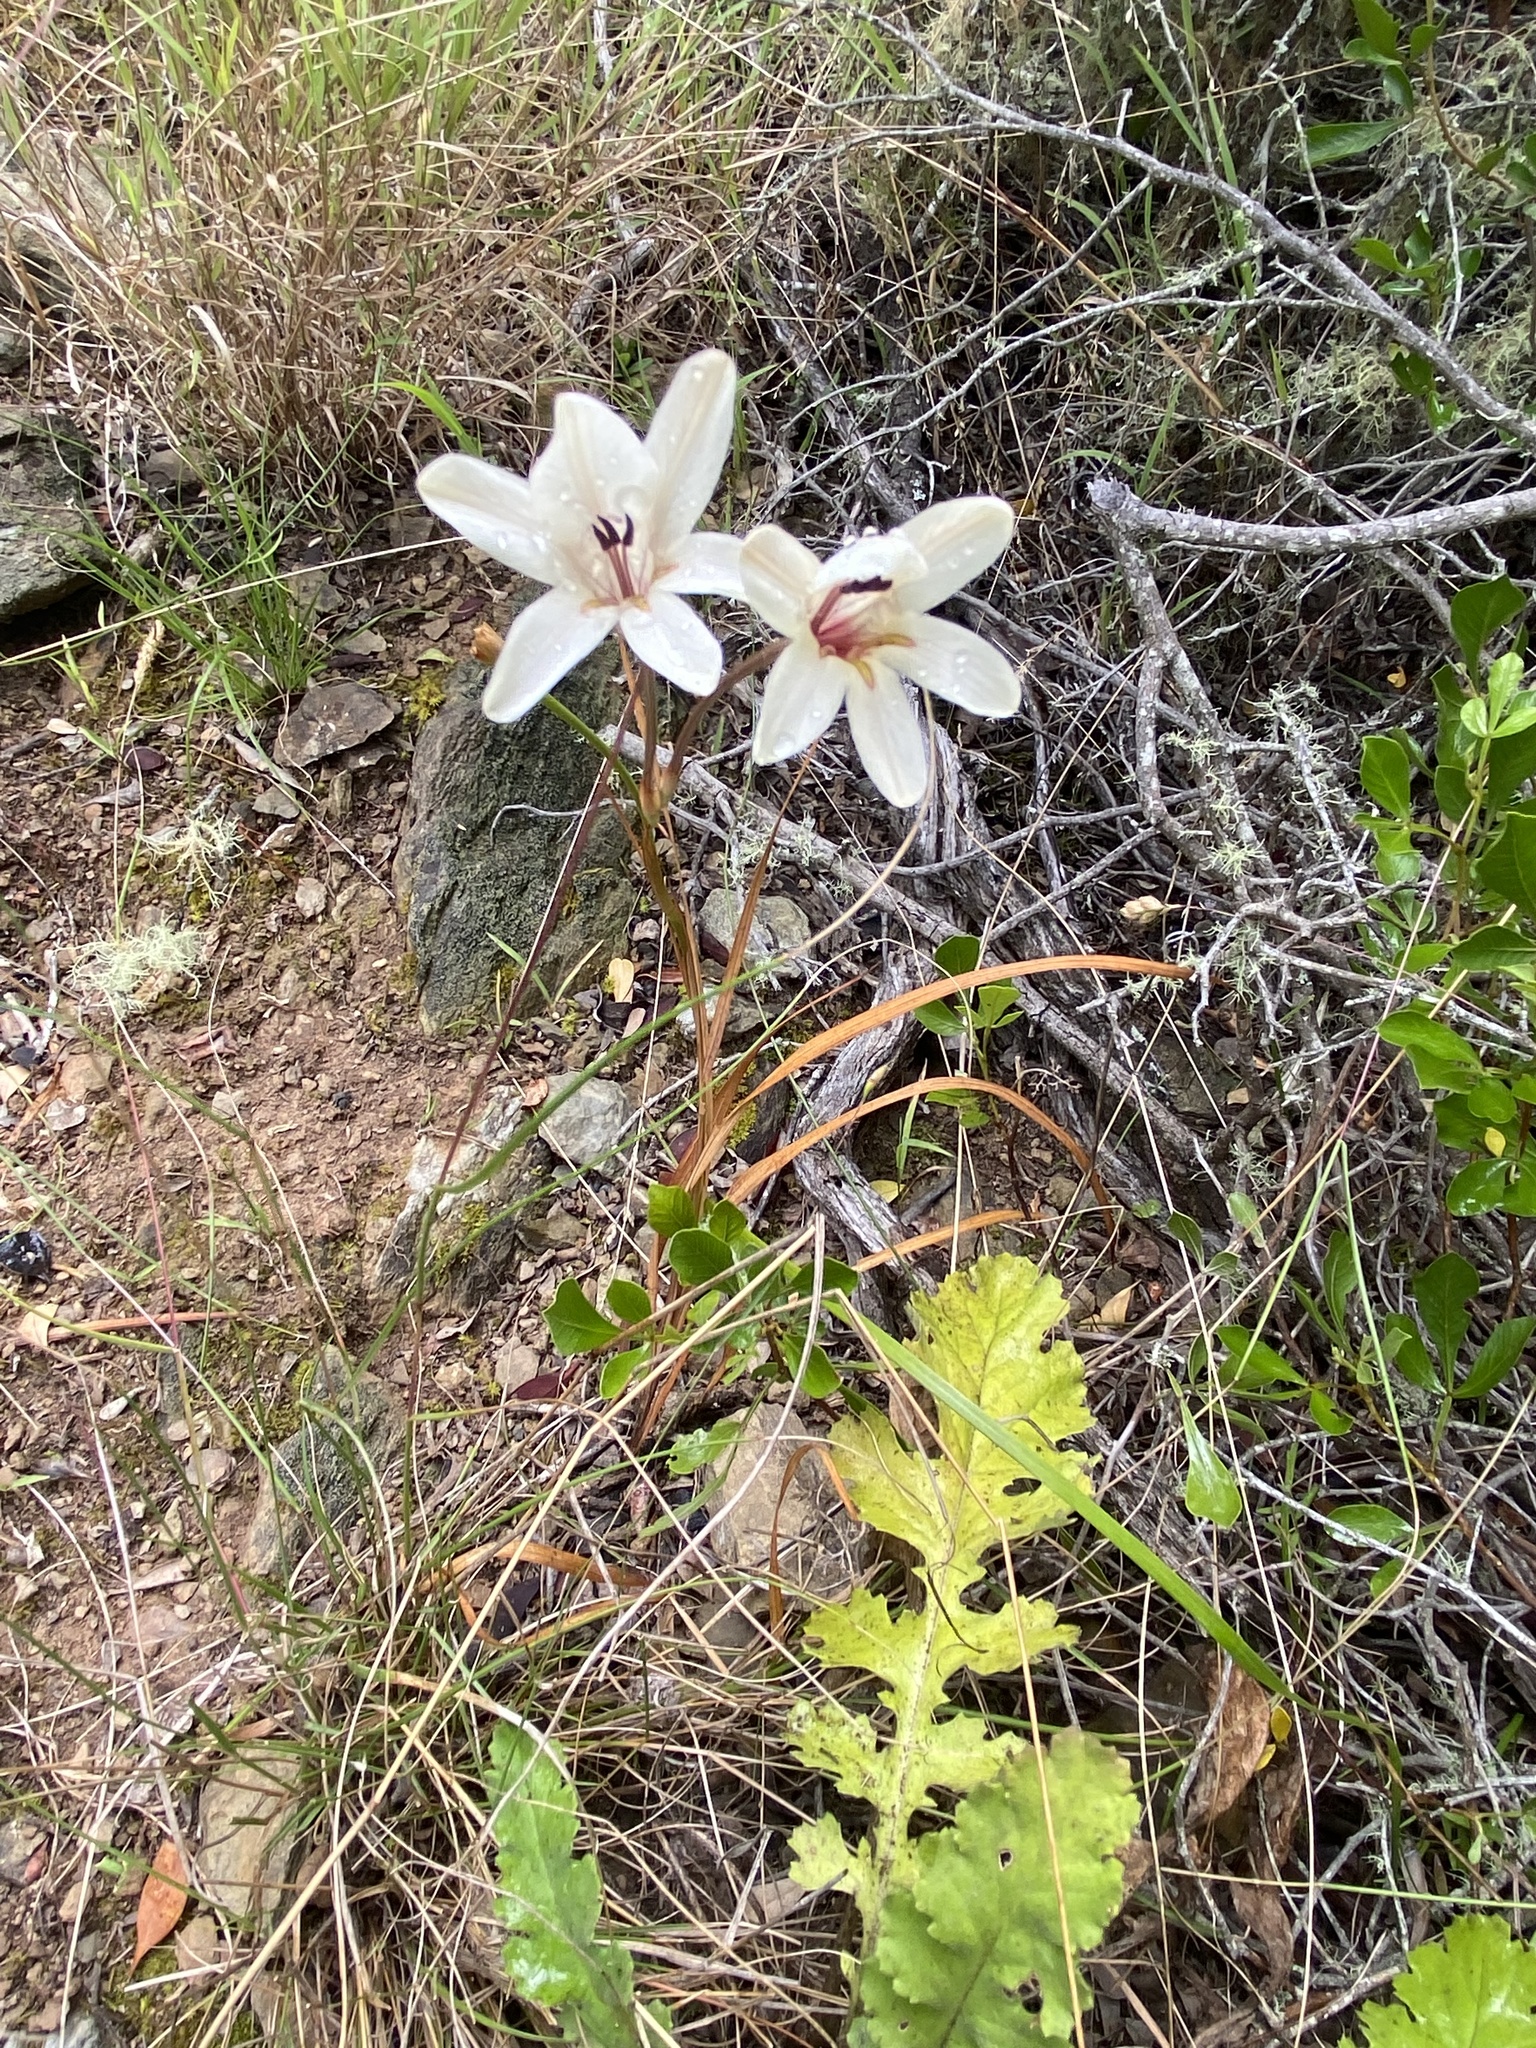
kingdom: Plantae
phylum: Tracheophyta
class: Liliopsida
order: Asparagales
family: Iridaceae
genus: Tritonia
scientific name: Tritonia flabellifolia
